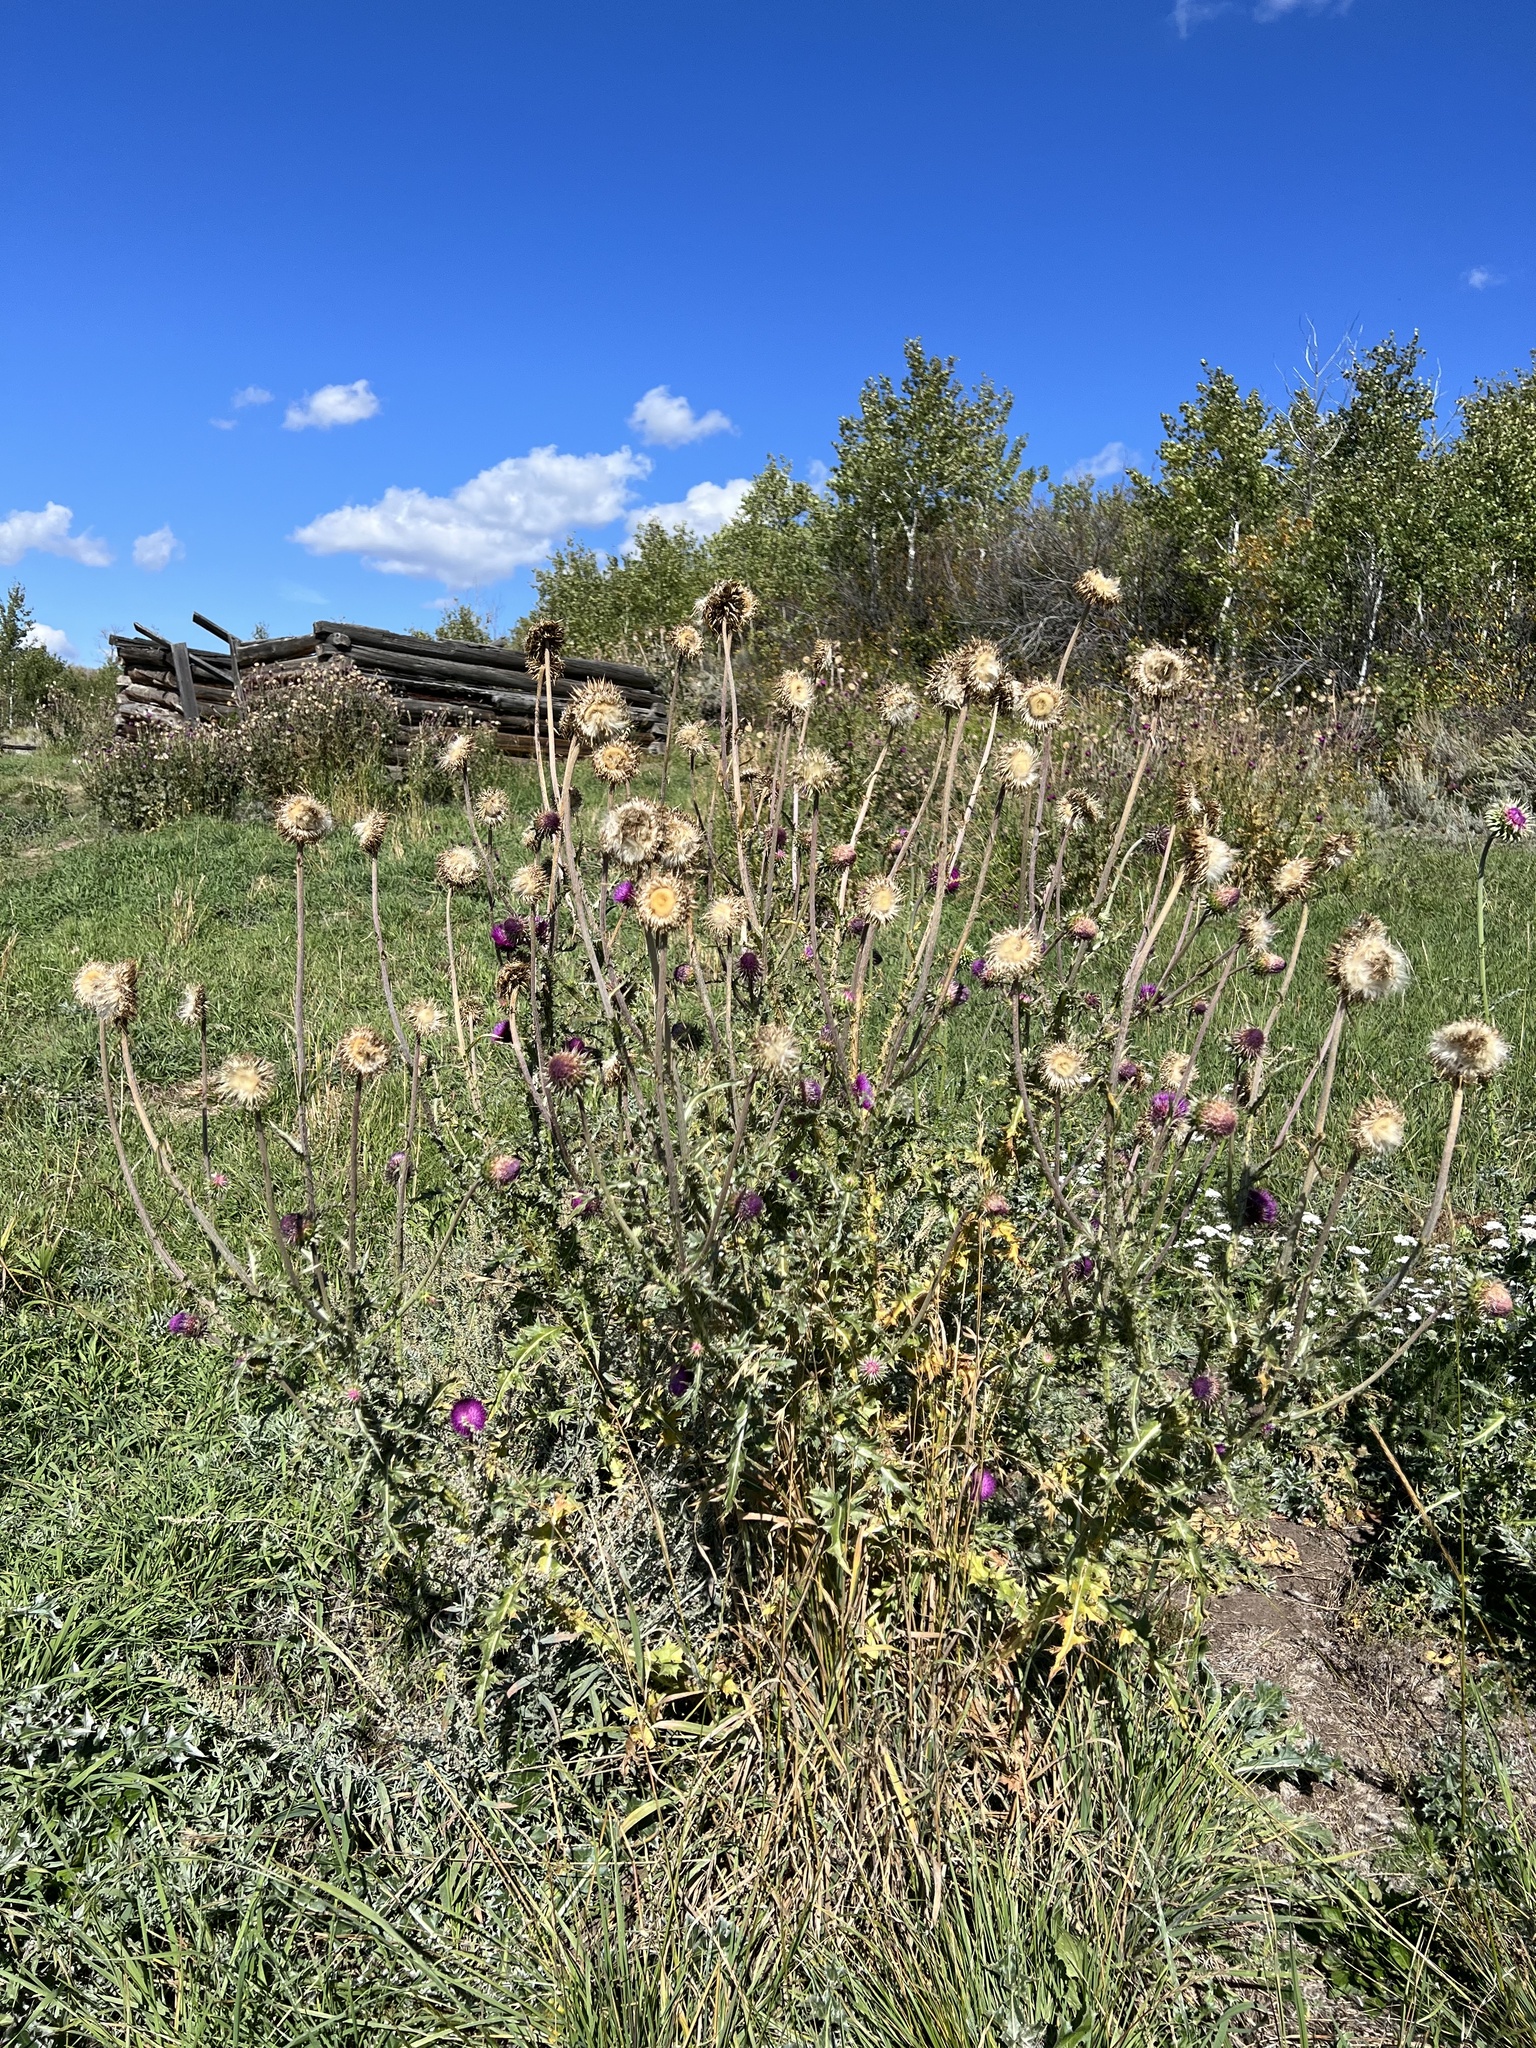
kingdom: Plantae
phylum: Tracheophyta
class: Magnoliopsida
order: Asterales
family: Asteraceae
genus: Carduus
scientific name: Carduus nutans
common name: Musk thistle
